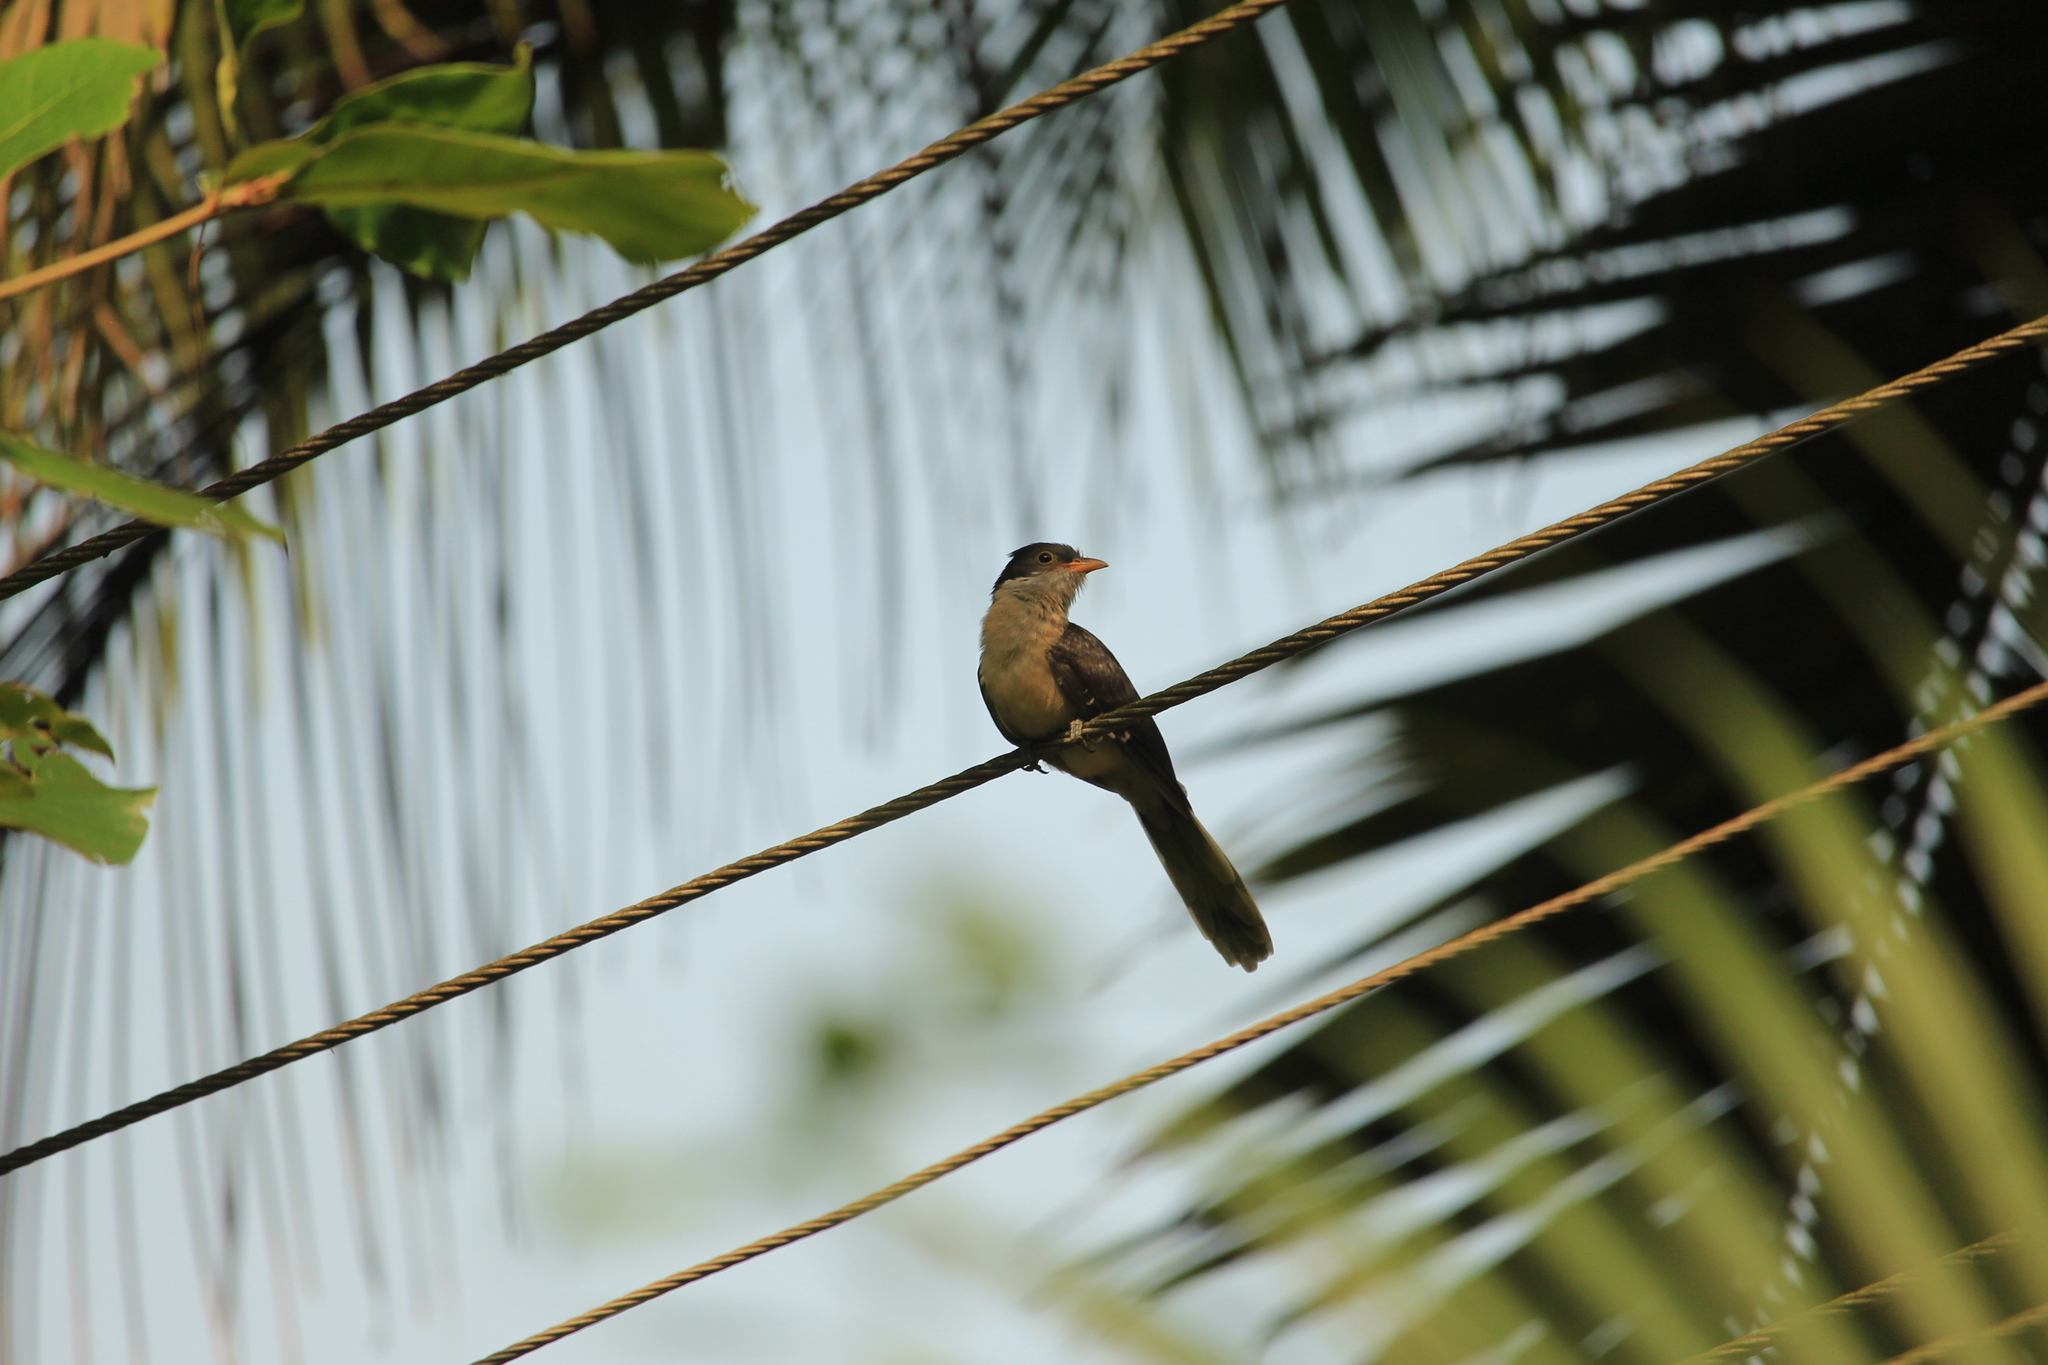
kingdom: Animalia
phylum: Chordata
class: Aves
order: Cuculiformes
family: Cuculidae
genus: Clamator
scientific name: Clamator jacobinus
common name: Jacobin cuckoo
